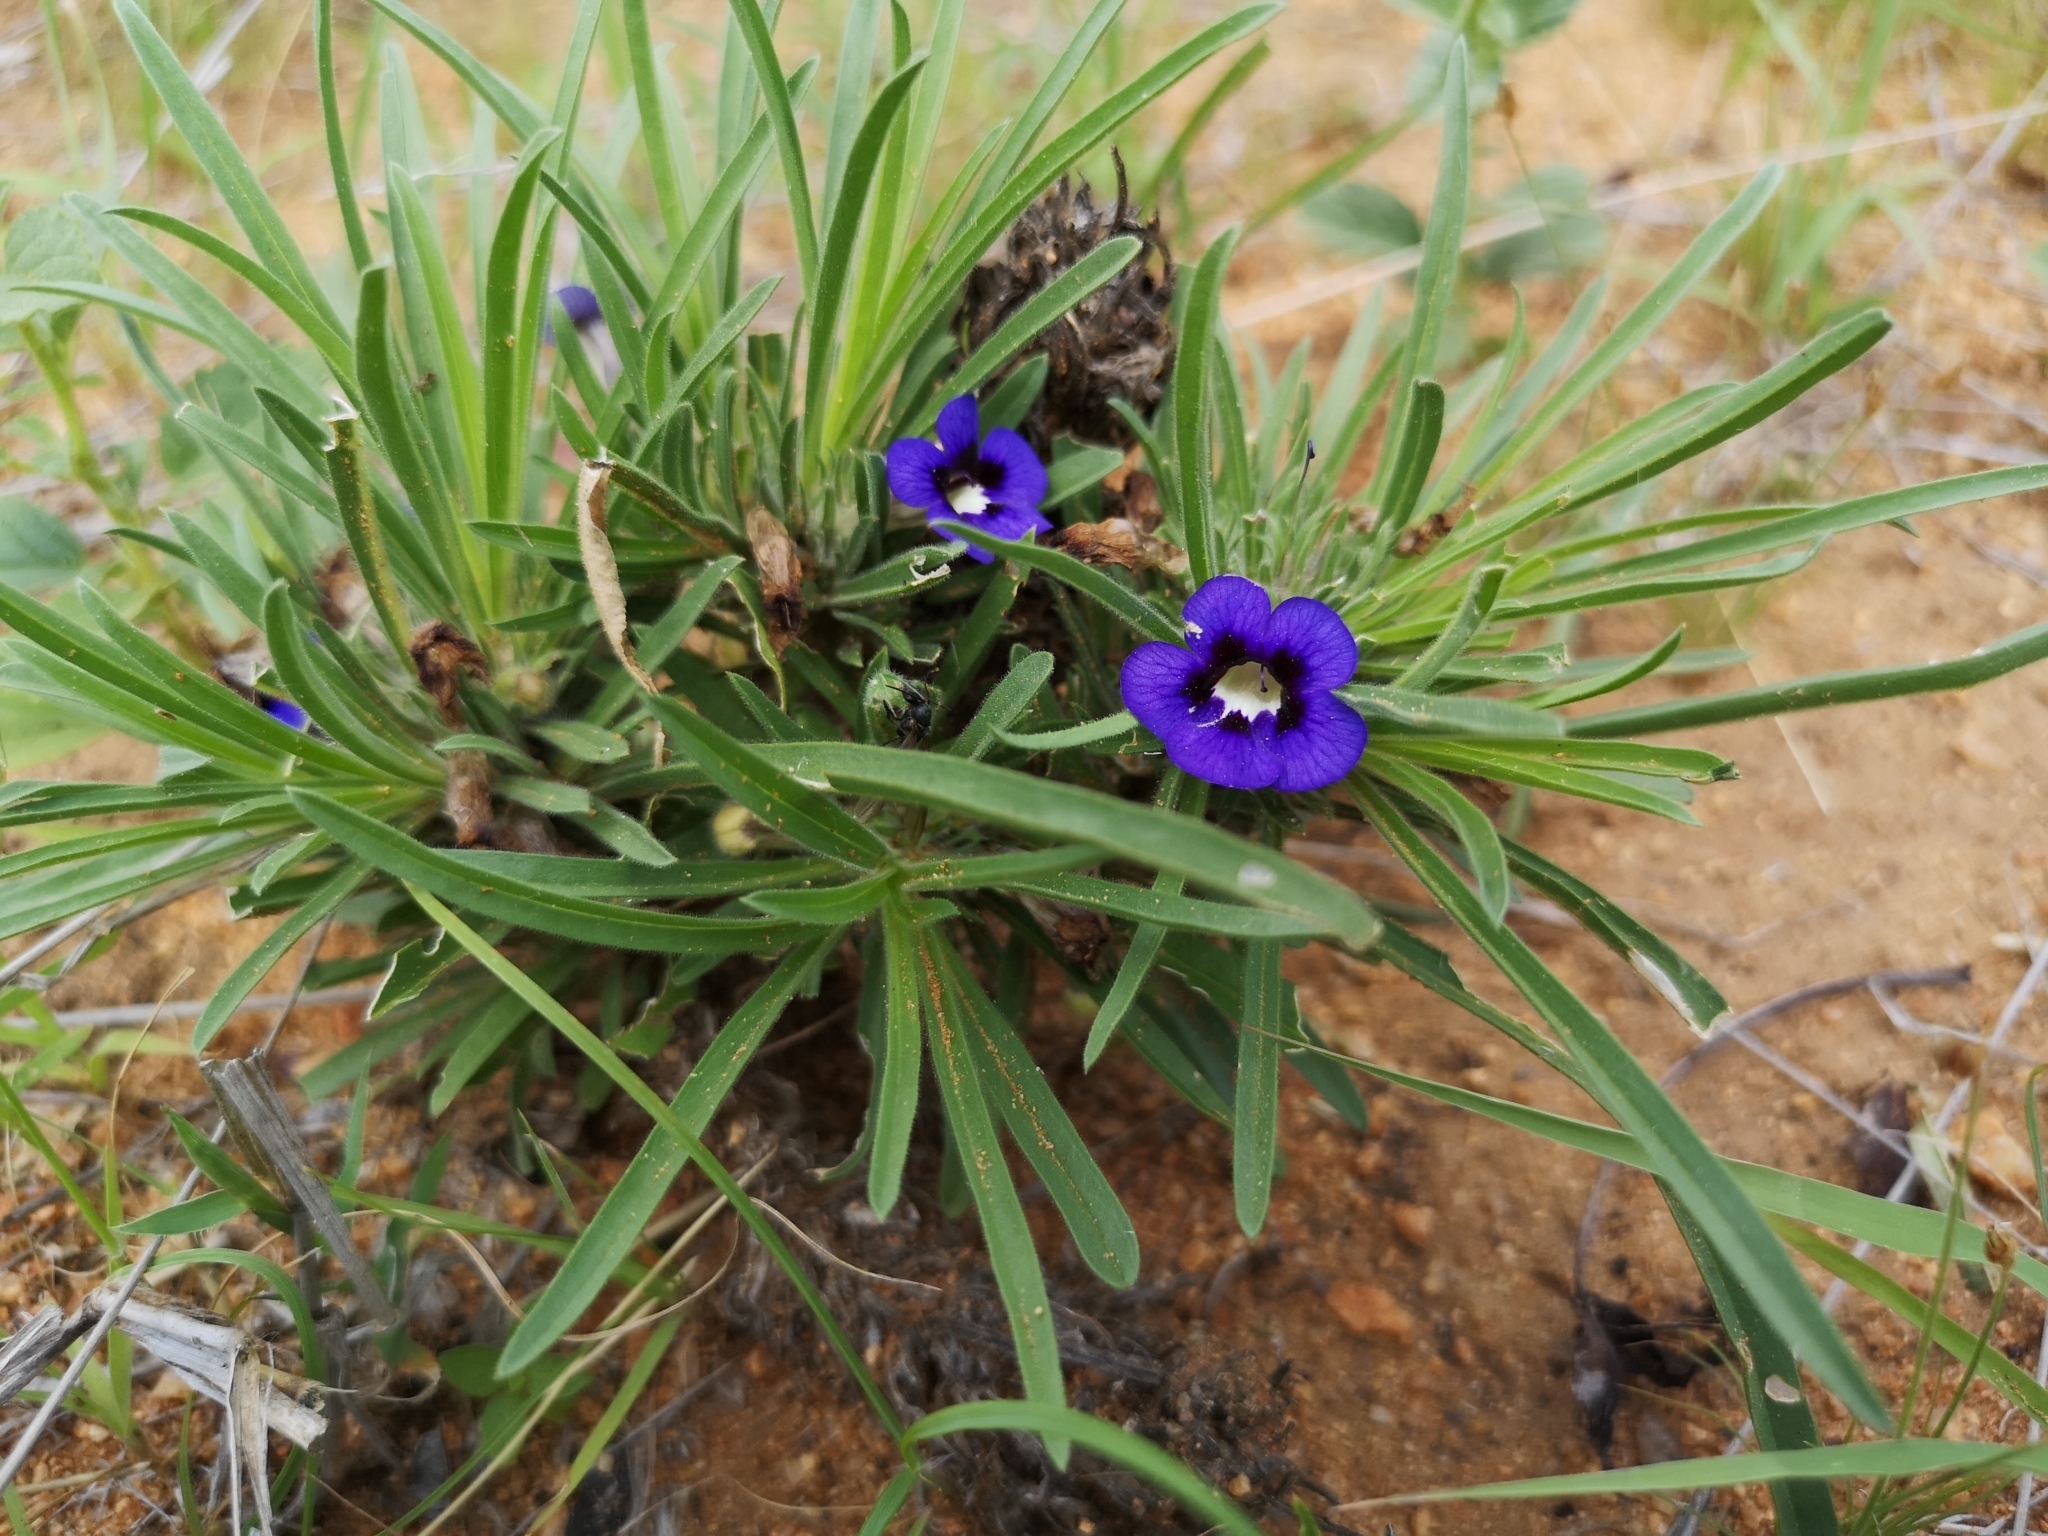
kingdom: Plantae
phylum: Tracheophyta
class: Magnoliopsida
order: Lamiales
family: Scrophulariaceae
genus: Aptosimum
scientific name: Aptosimum lineare
